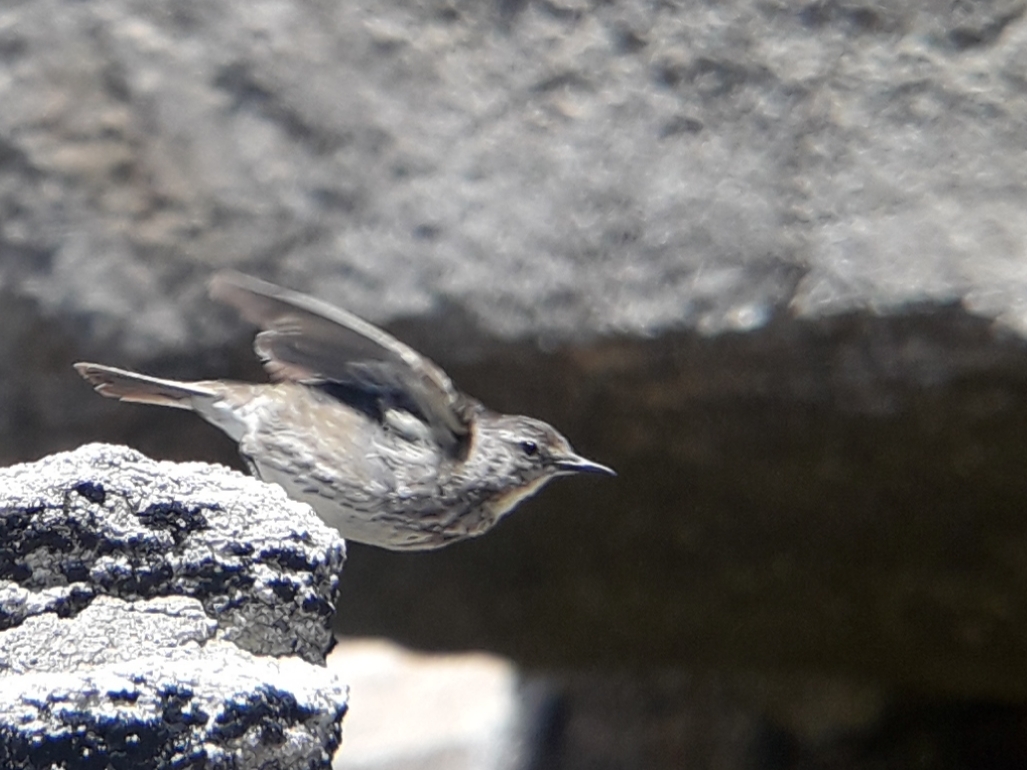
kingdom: Animalia
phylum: Chordata
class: Aves
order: Passeriformes
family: Motacillidae
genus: Anthus
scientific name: Anthus petrosus
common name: Eurasian rock pipit
